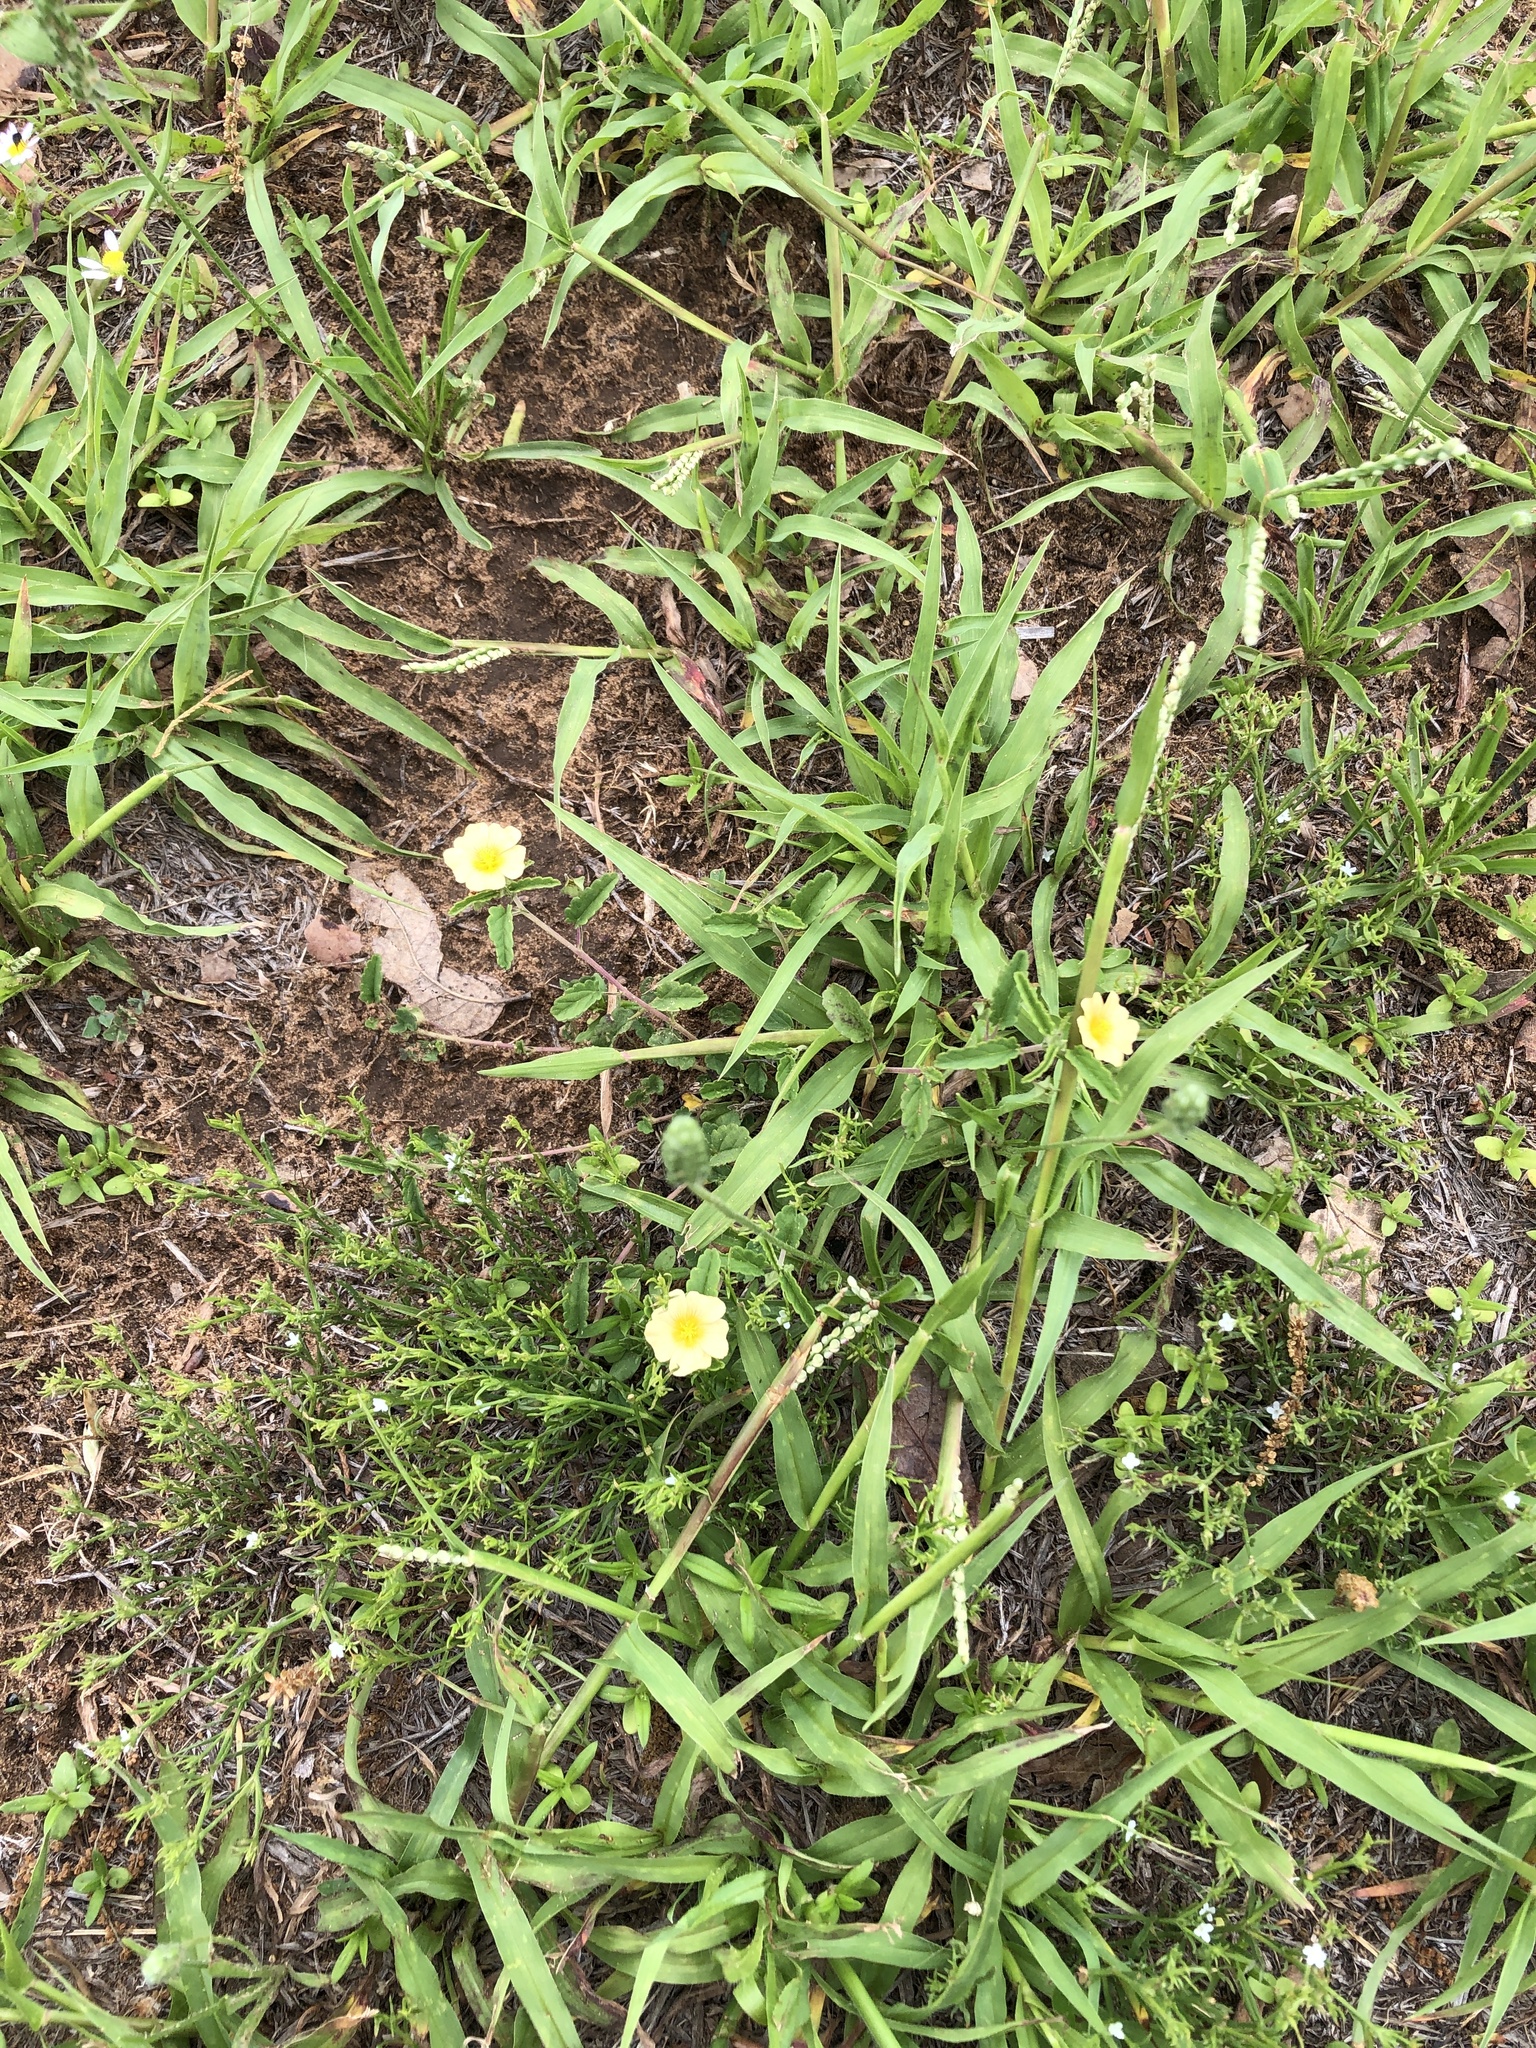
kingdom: Plantae
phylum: Tracheophyta
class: Magnoliopsida
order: Malvales
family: Malvaceae
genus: Sida
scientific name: Sida abutilifolia
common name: Spreading fanpetals
